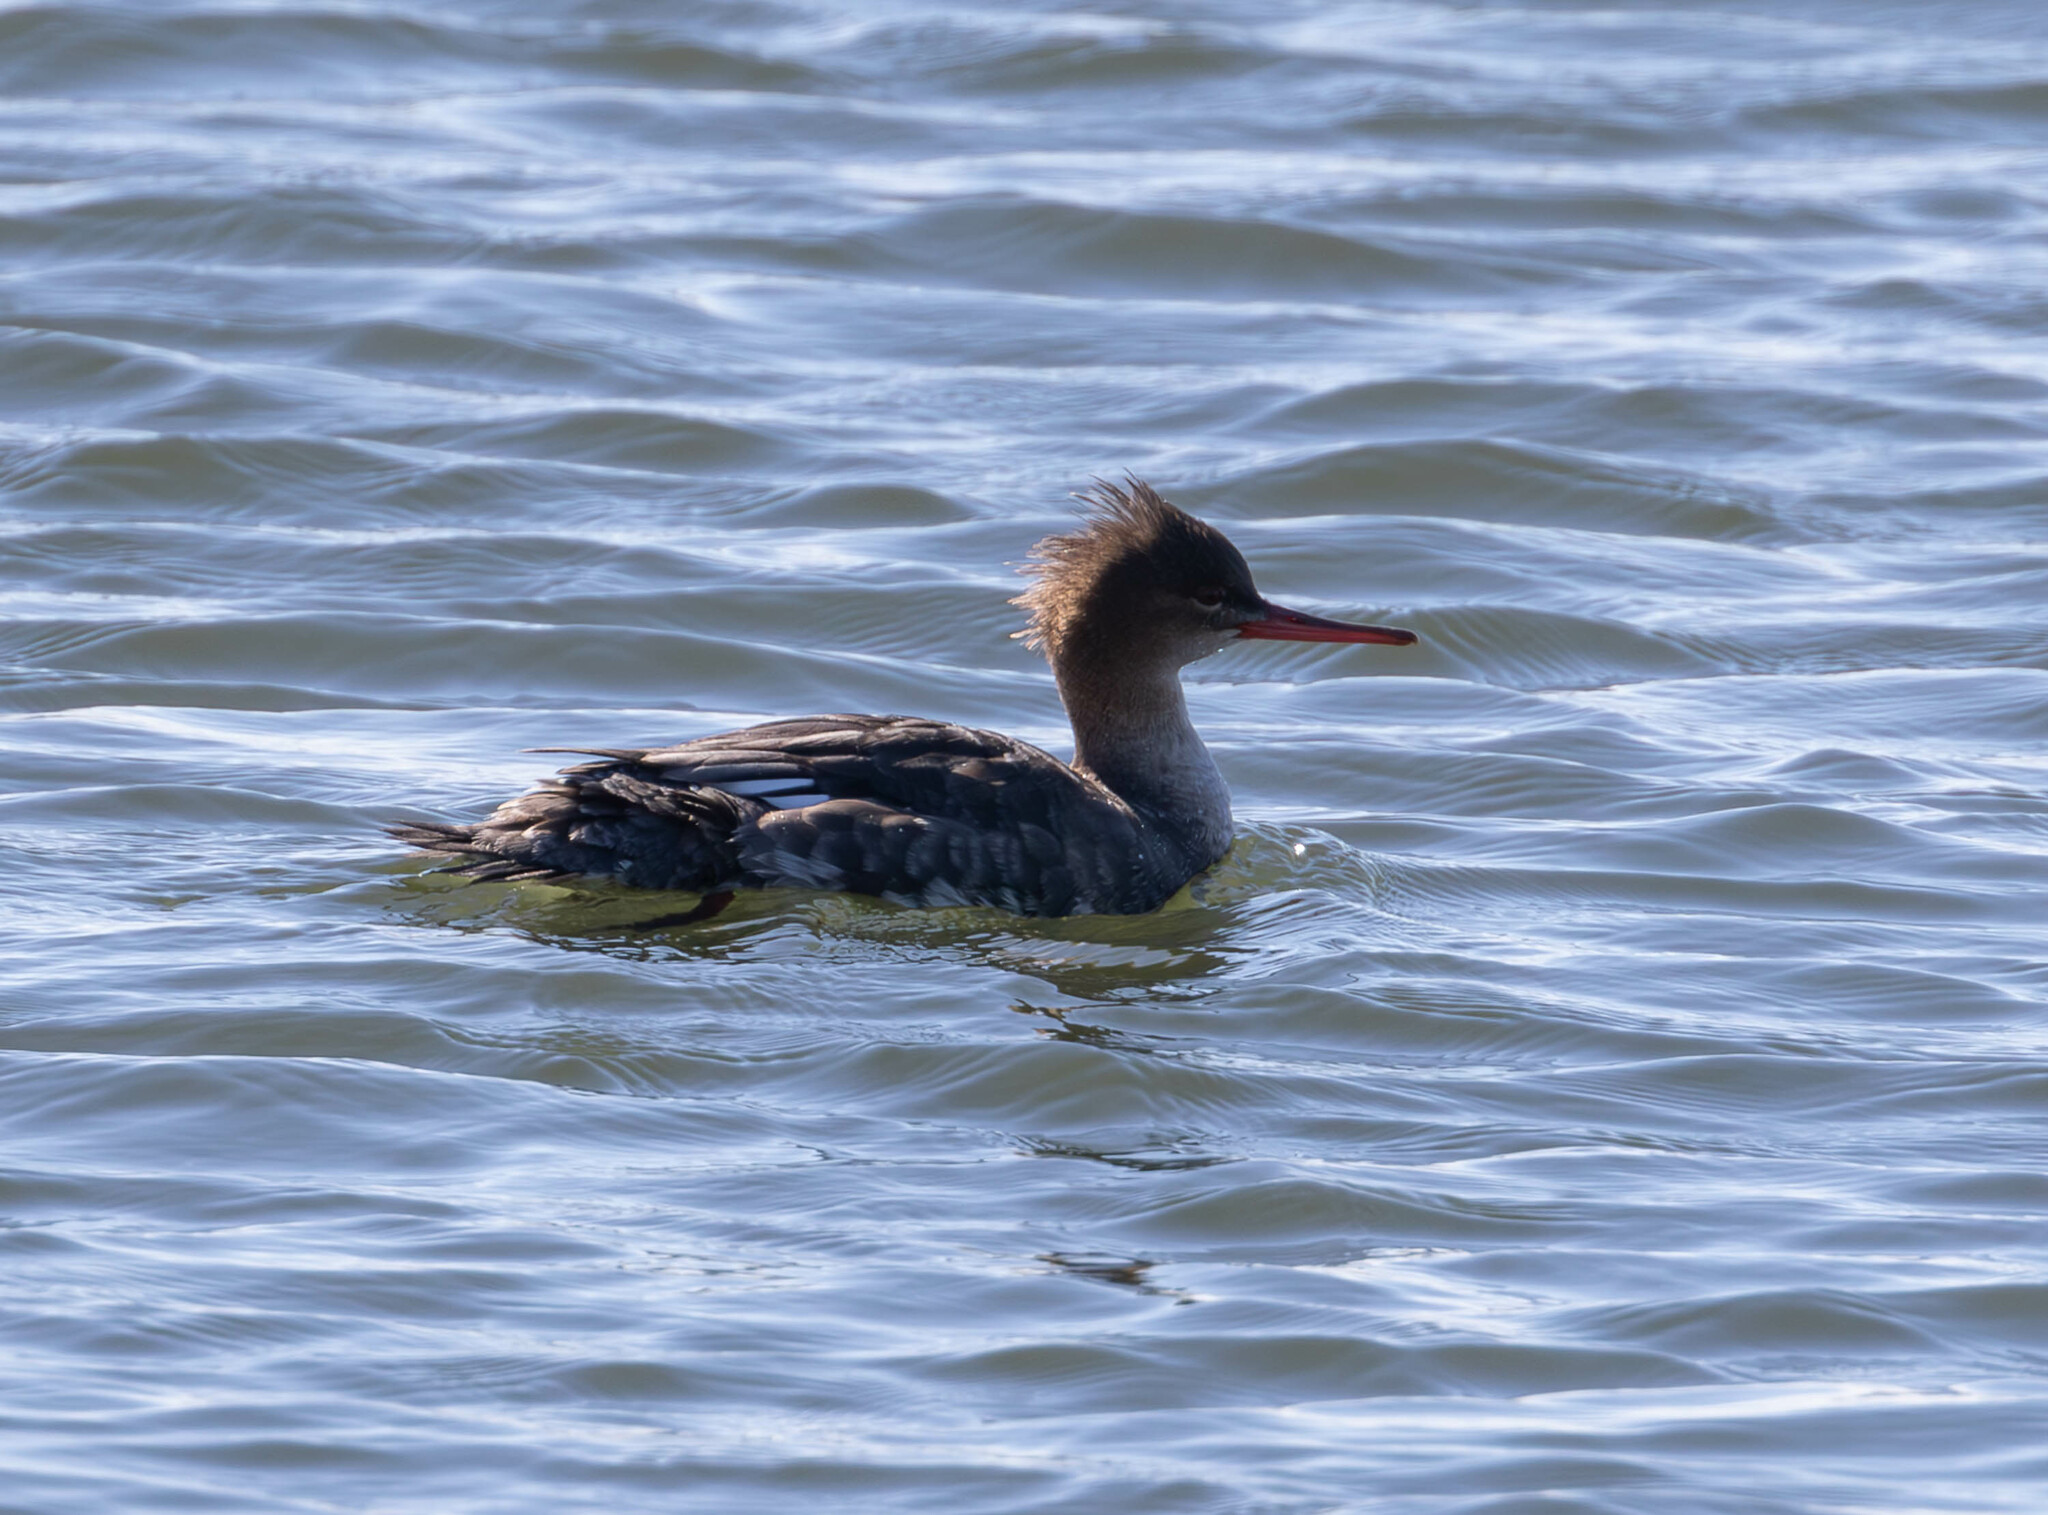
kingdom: Animalia
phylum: Chordata
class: Aves
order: Anseriformes
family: Anatidae
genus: Mergus
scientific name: Mergus serrator
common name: Red-breasted merganser
